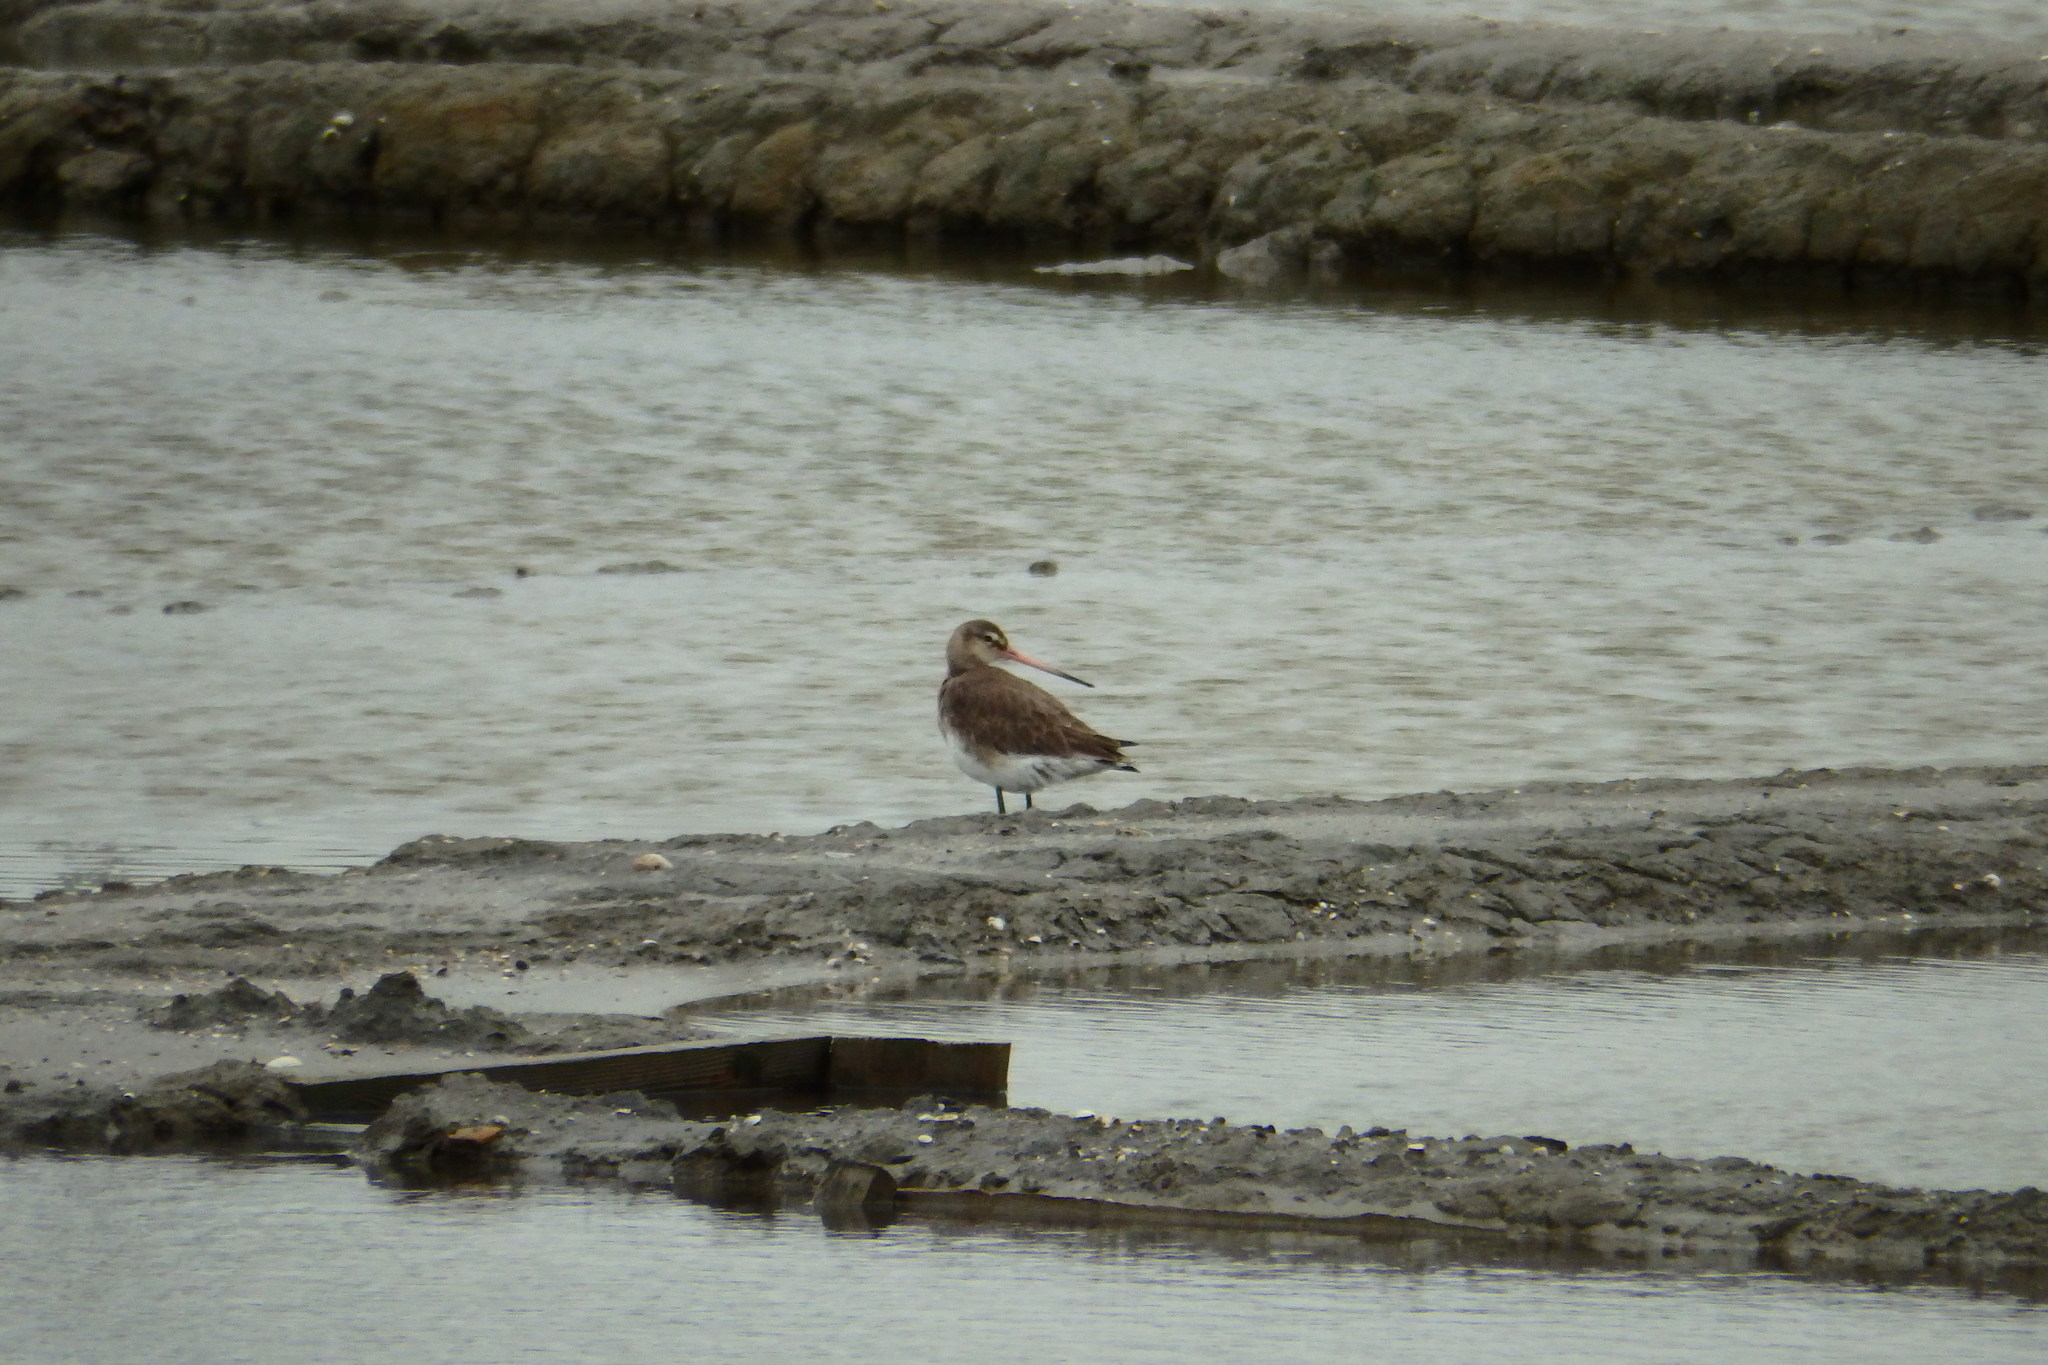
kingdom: Animalia
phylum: Chordata
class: Aves
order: Charadriiformes
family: Scolopacidae
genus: Limosa
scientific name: Limosa limosa
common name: Black-tailed godwit
